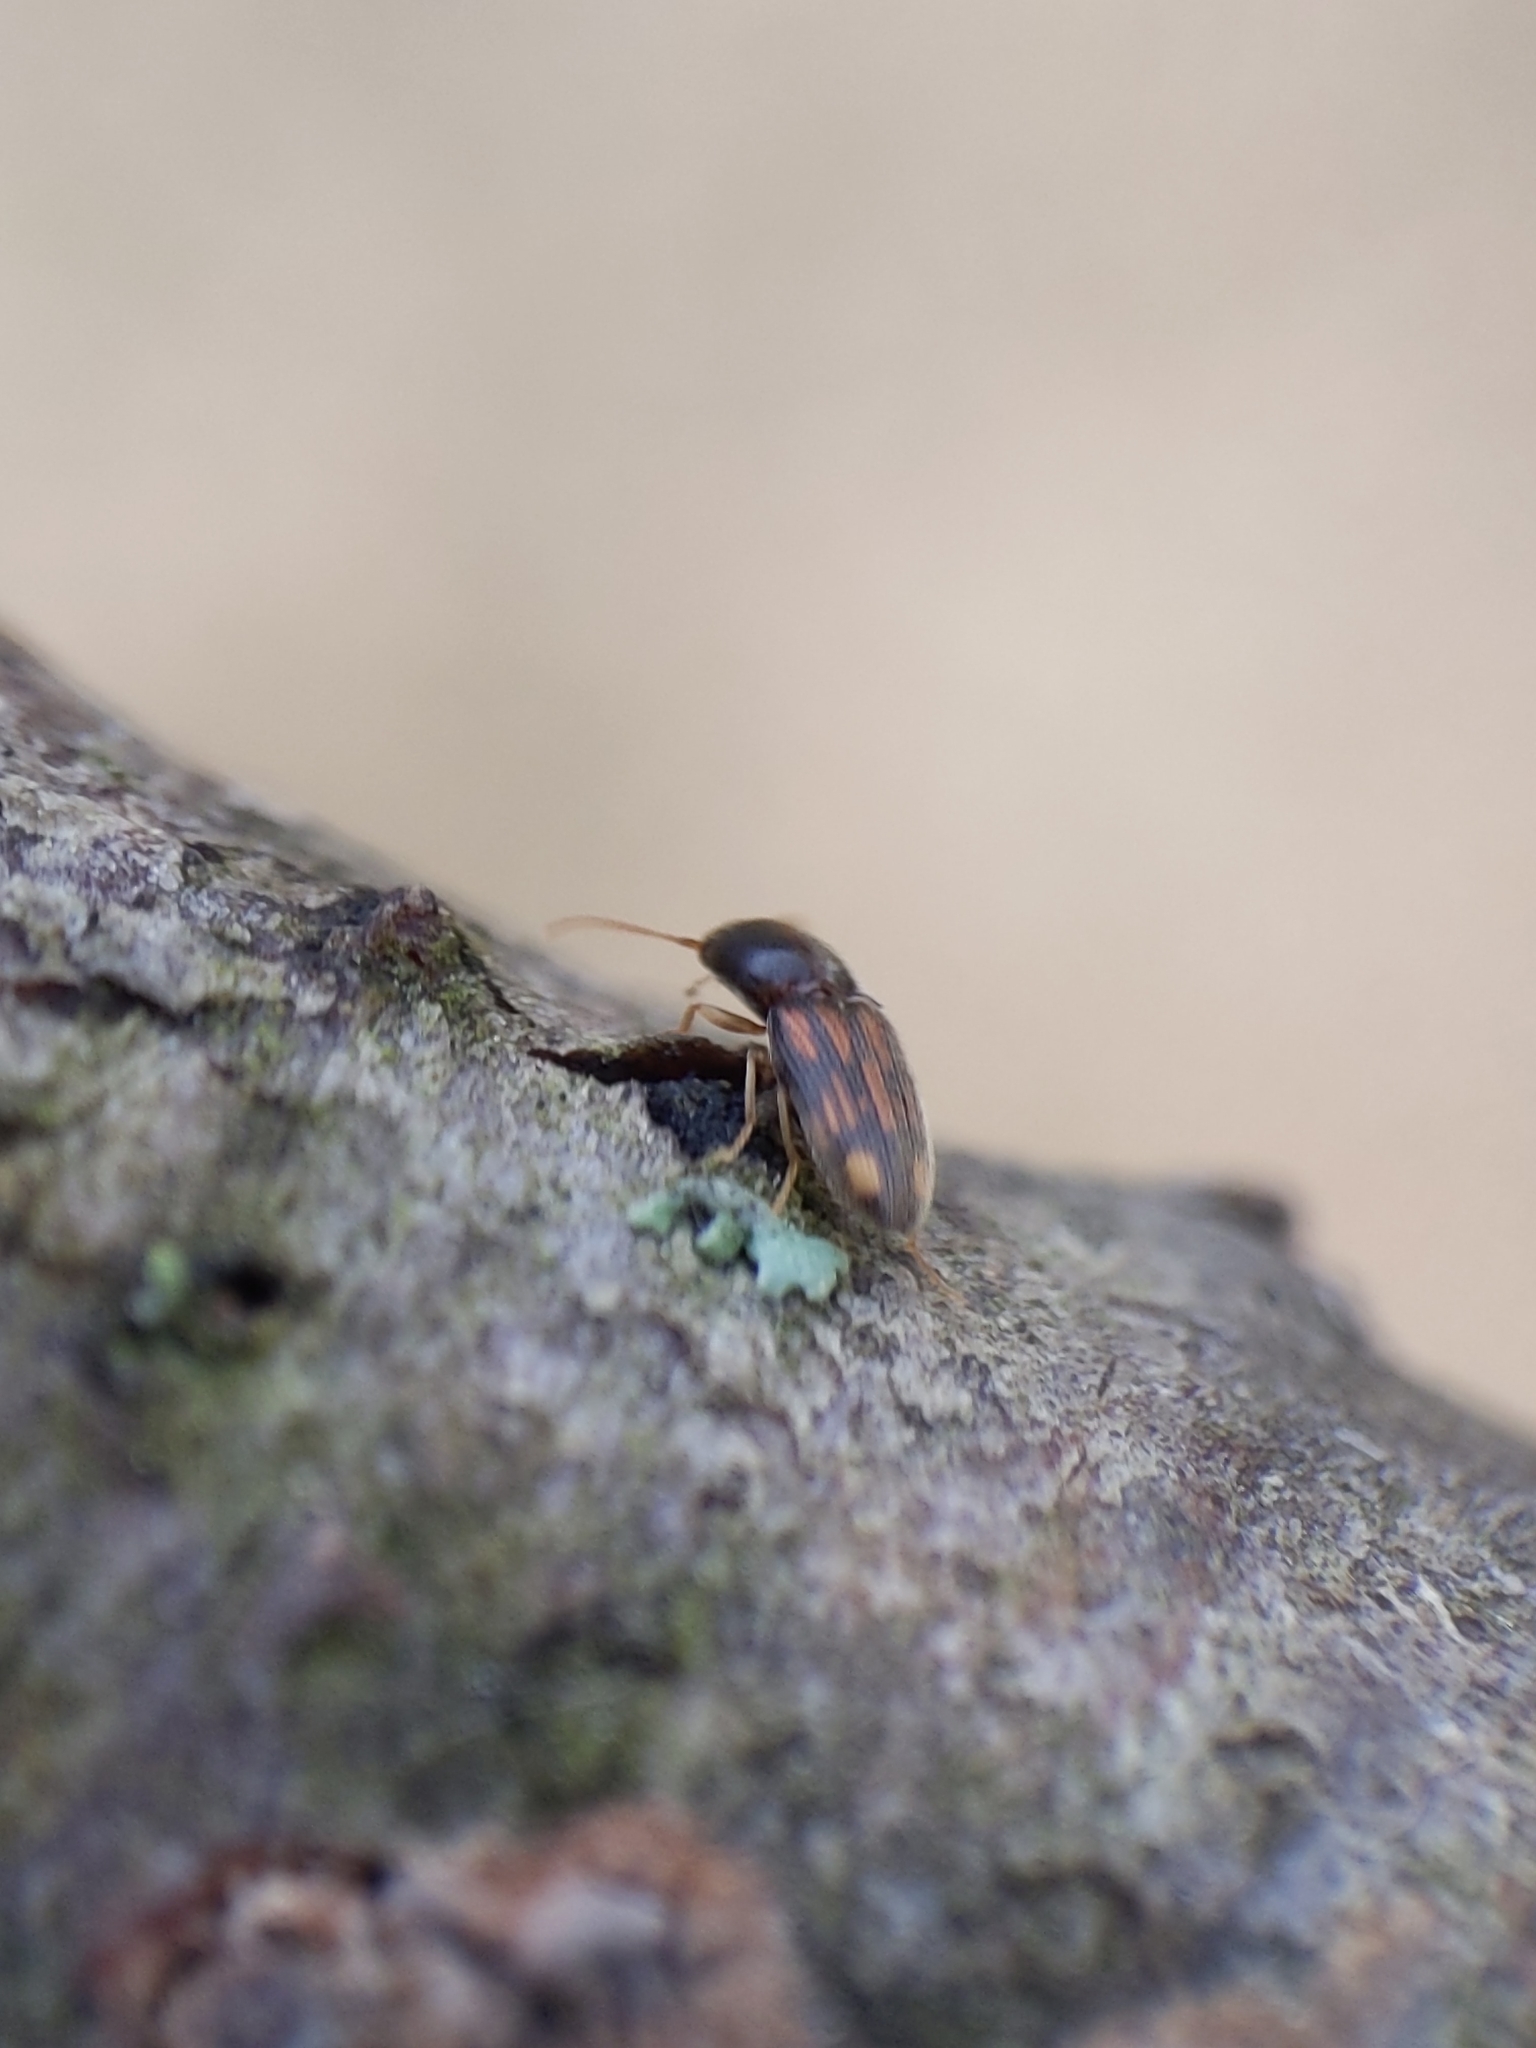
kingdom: Animalia
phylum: Arthropoda
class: Insecta
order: Coleoptera
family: Elateridae
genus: Monocrepidius
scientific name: Monocrepidius bellus
